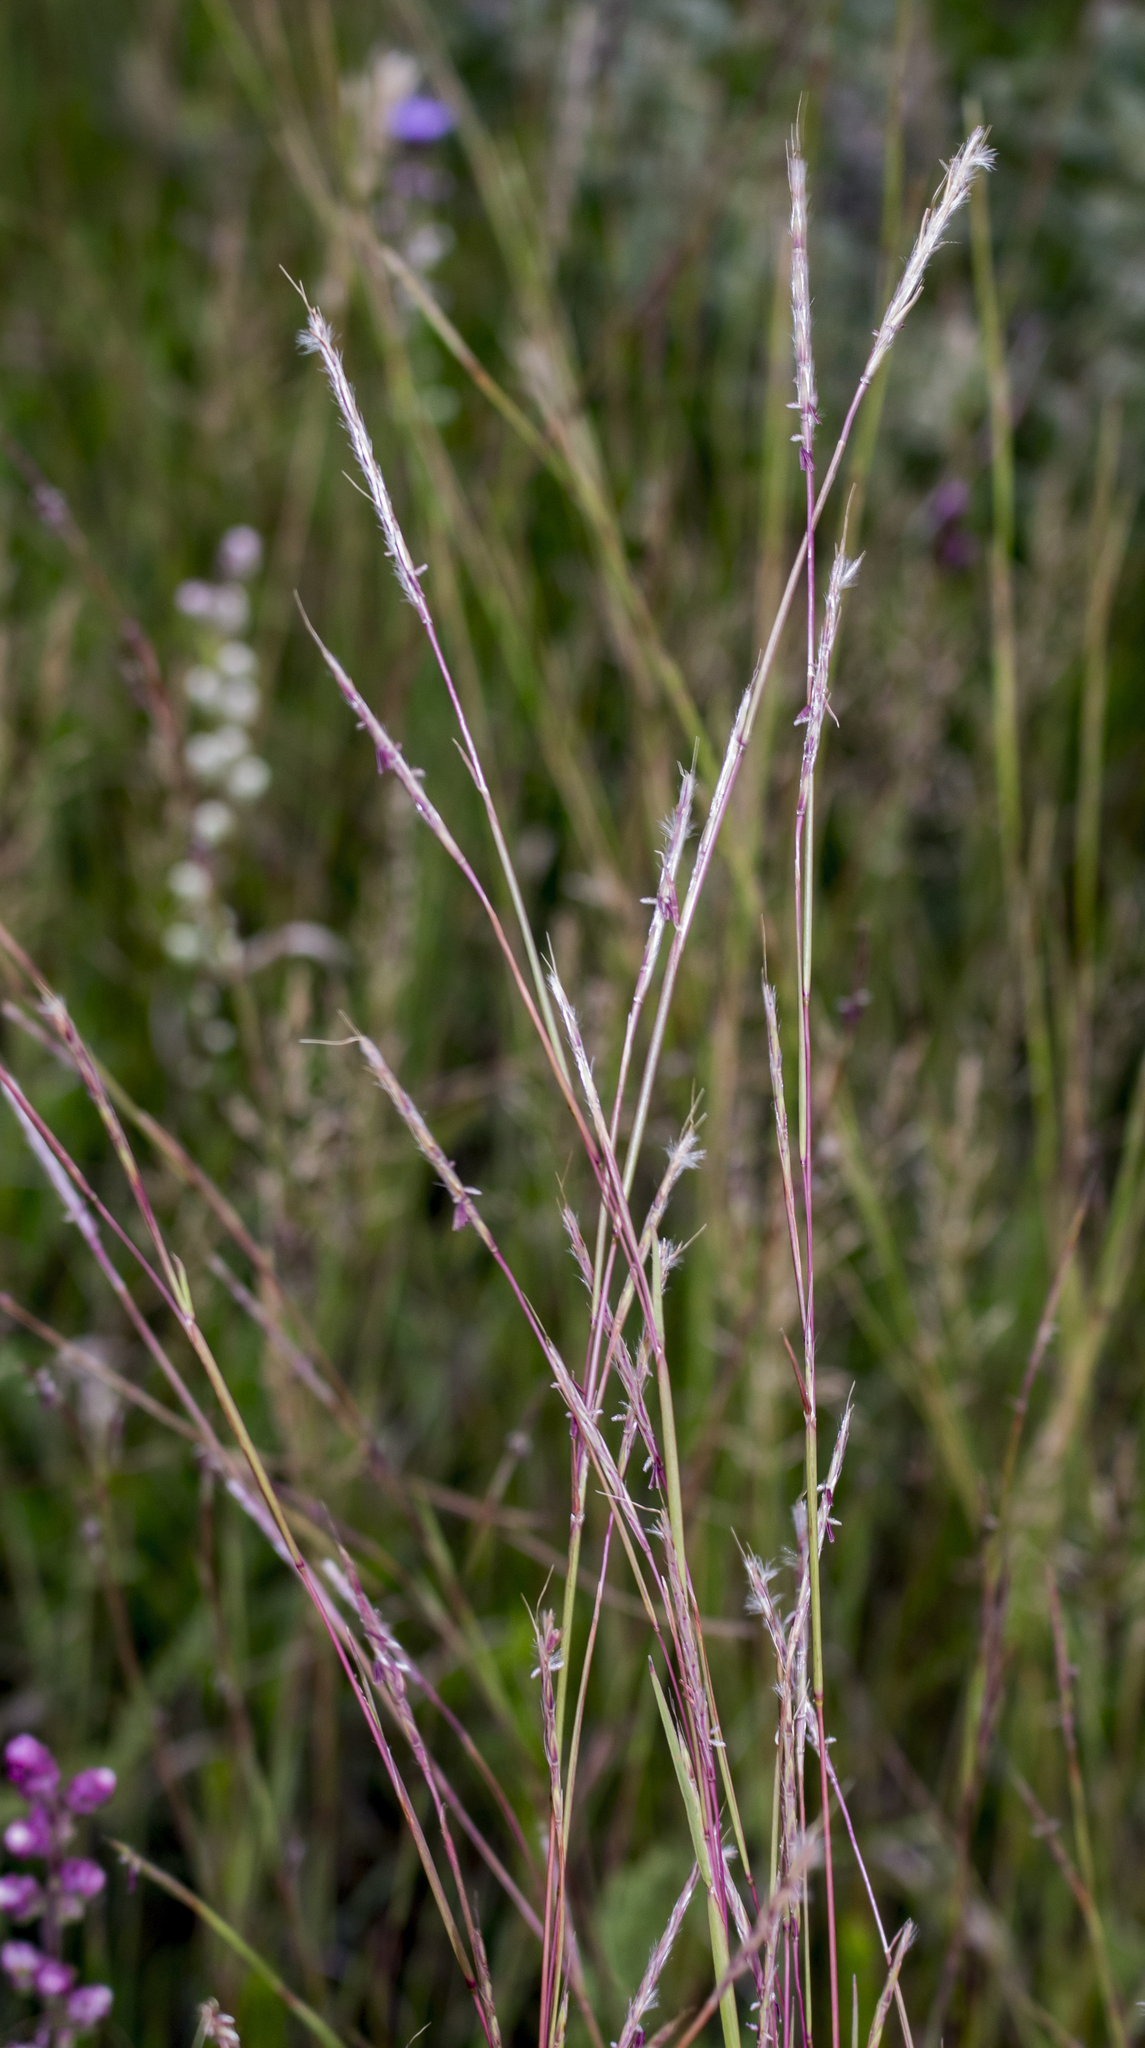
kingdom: Plantae
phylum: Tracheophyta
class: Liliopsida
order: Poales
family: Poaceae
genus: Schizachyrium
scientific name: Schizachyrium scoparium
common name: Little bluestem
